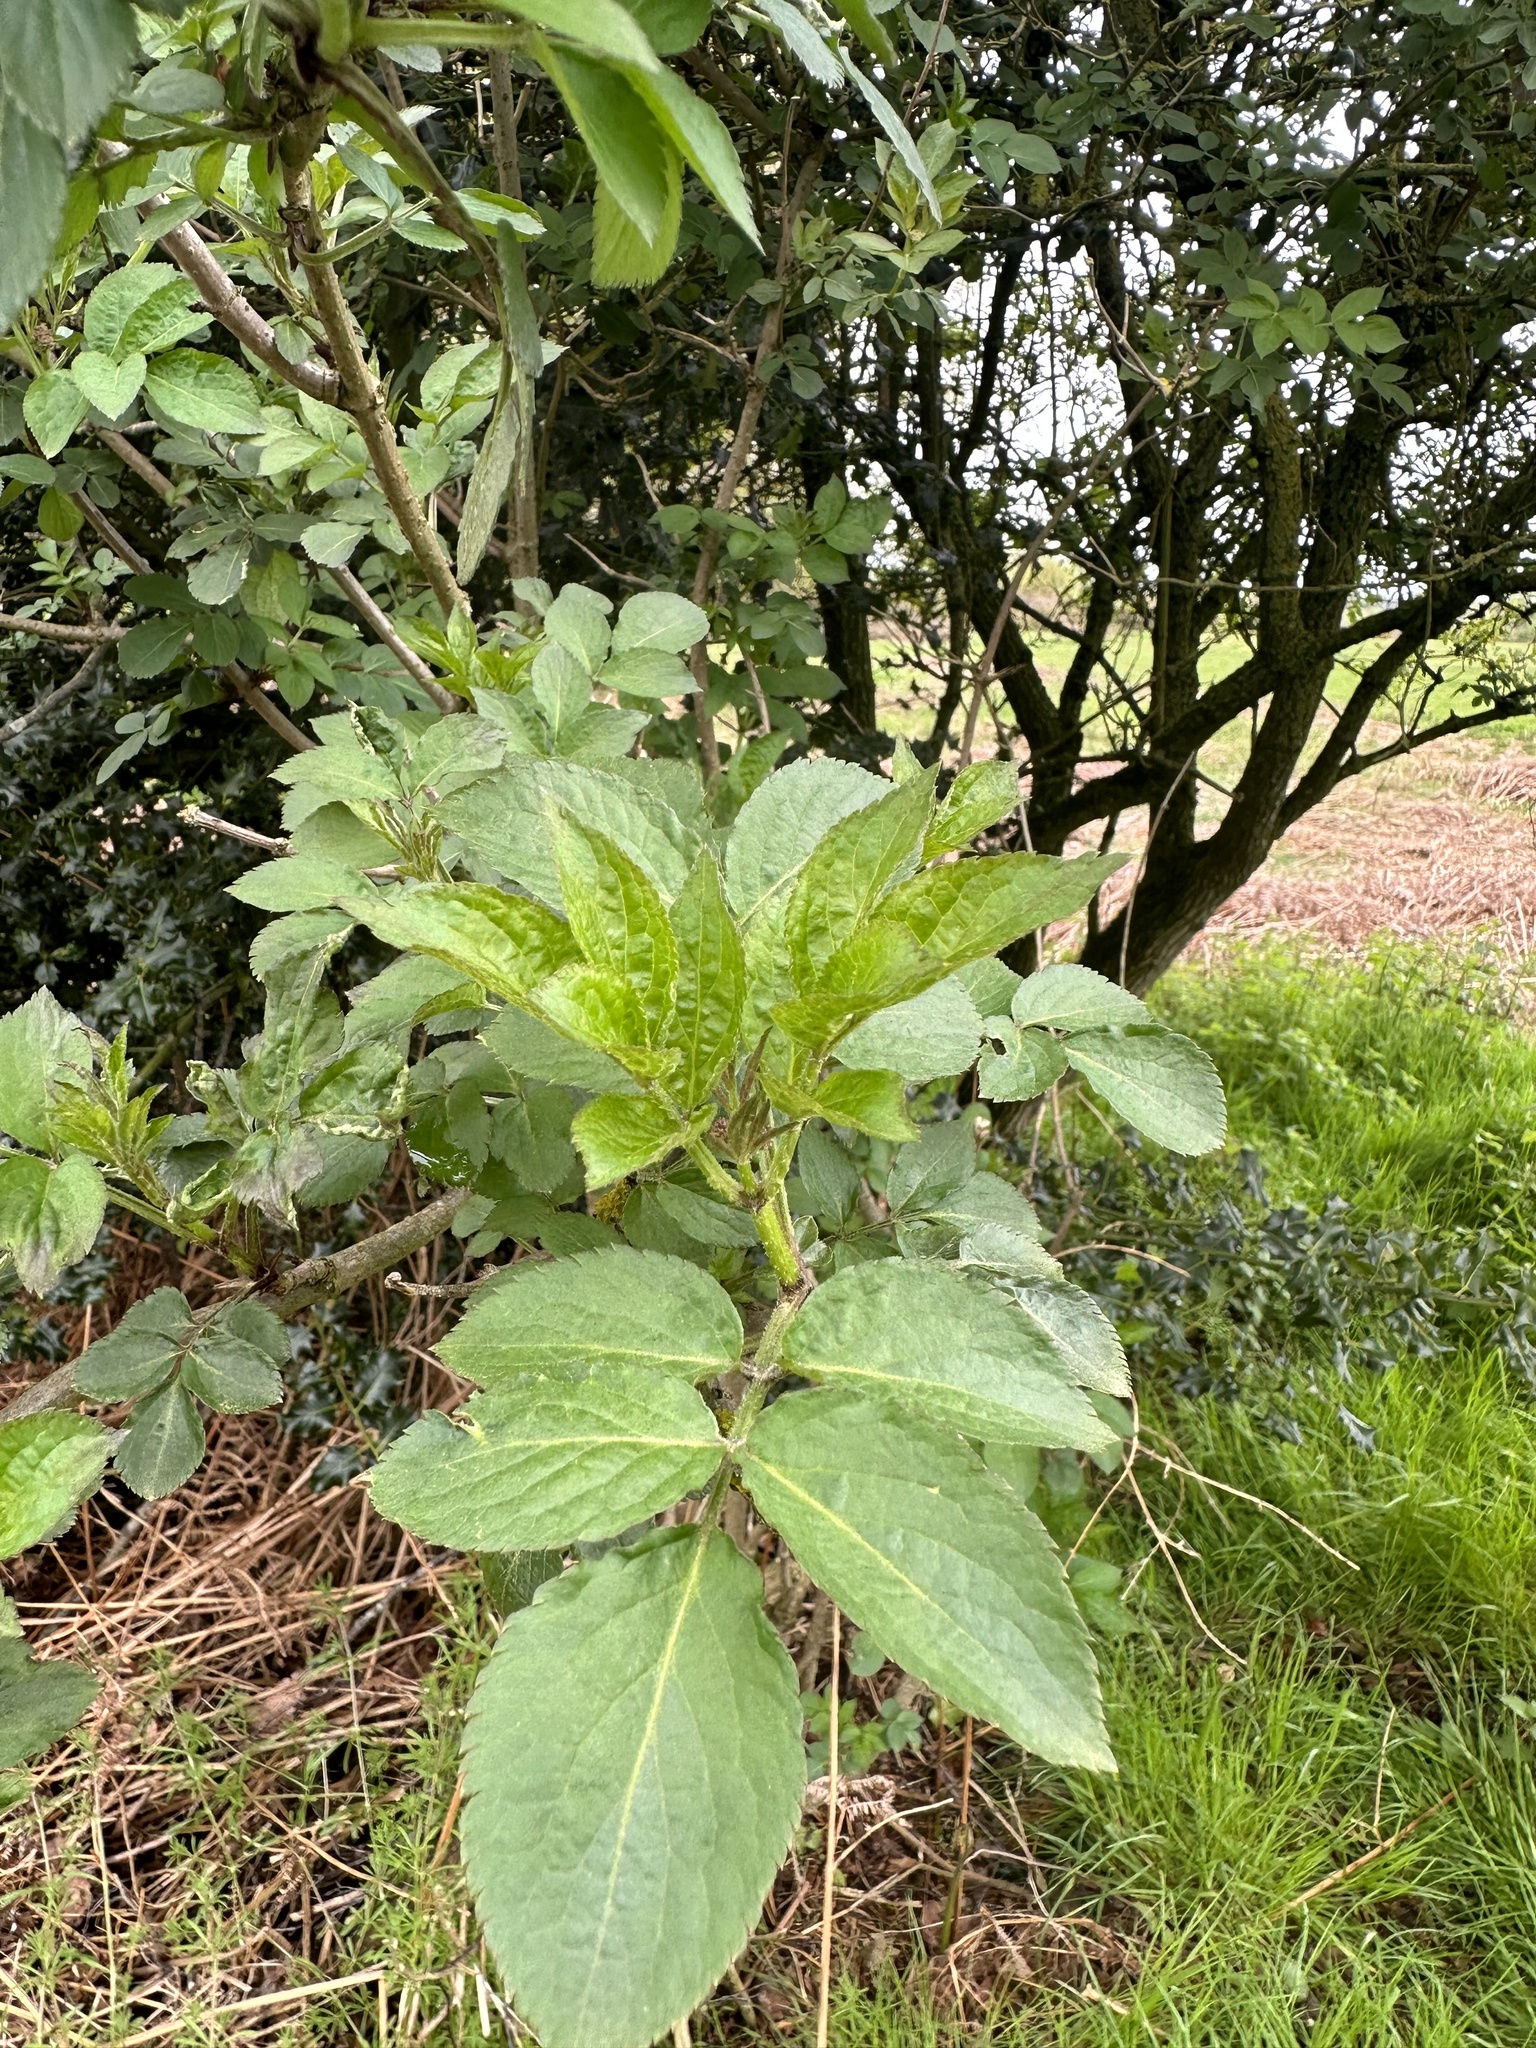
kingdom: Plantae
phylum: Tracheophyta
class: Magnoliopsida
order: Dipsacales
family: Viburnaceae
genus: Sambucus
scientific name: Sambucus nigra
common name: Elder
